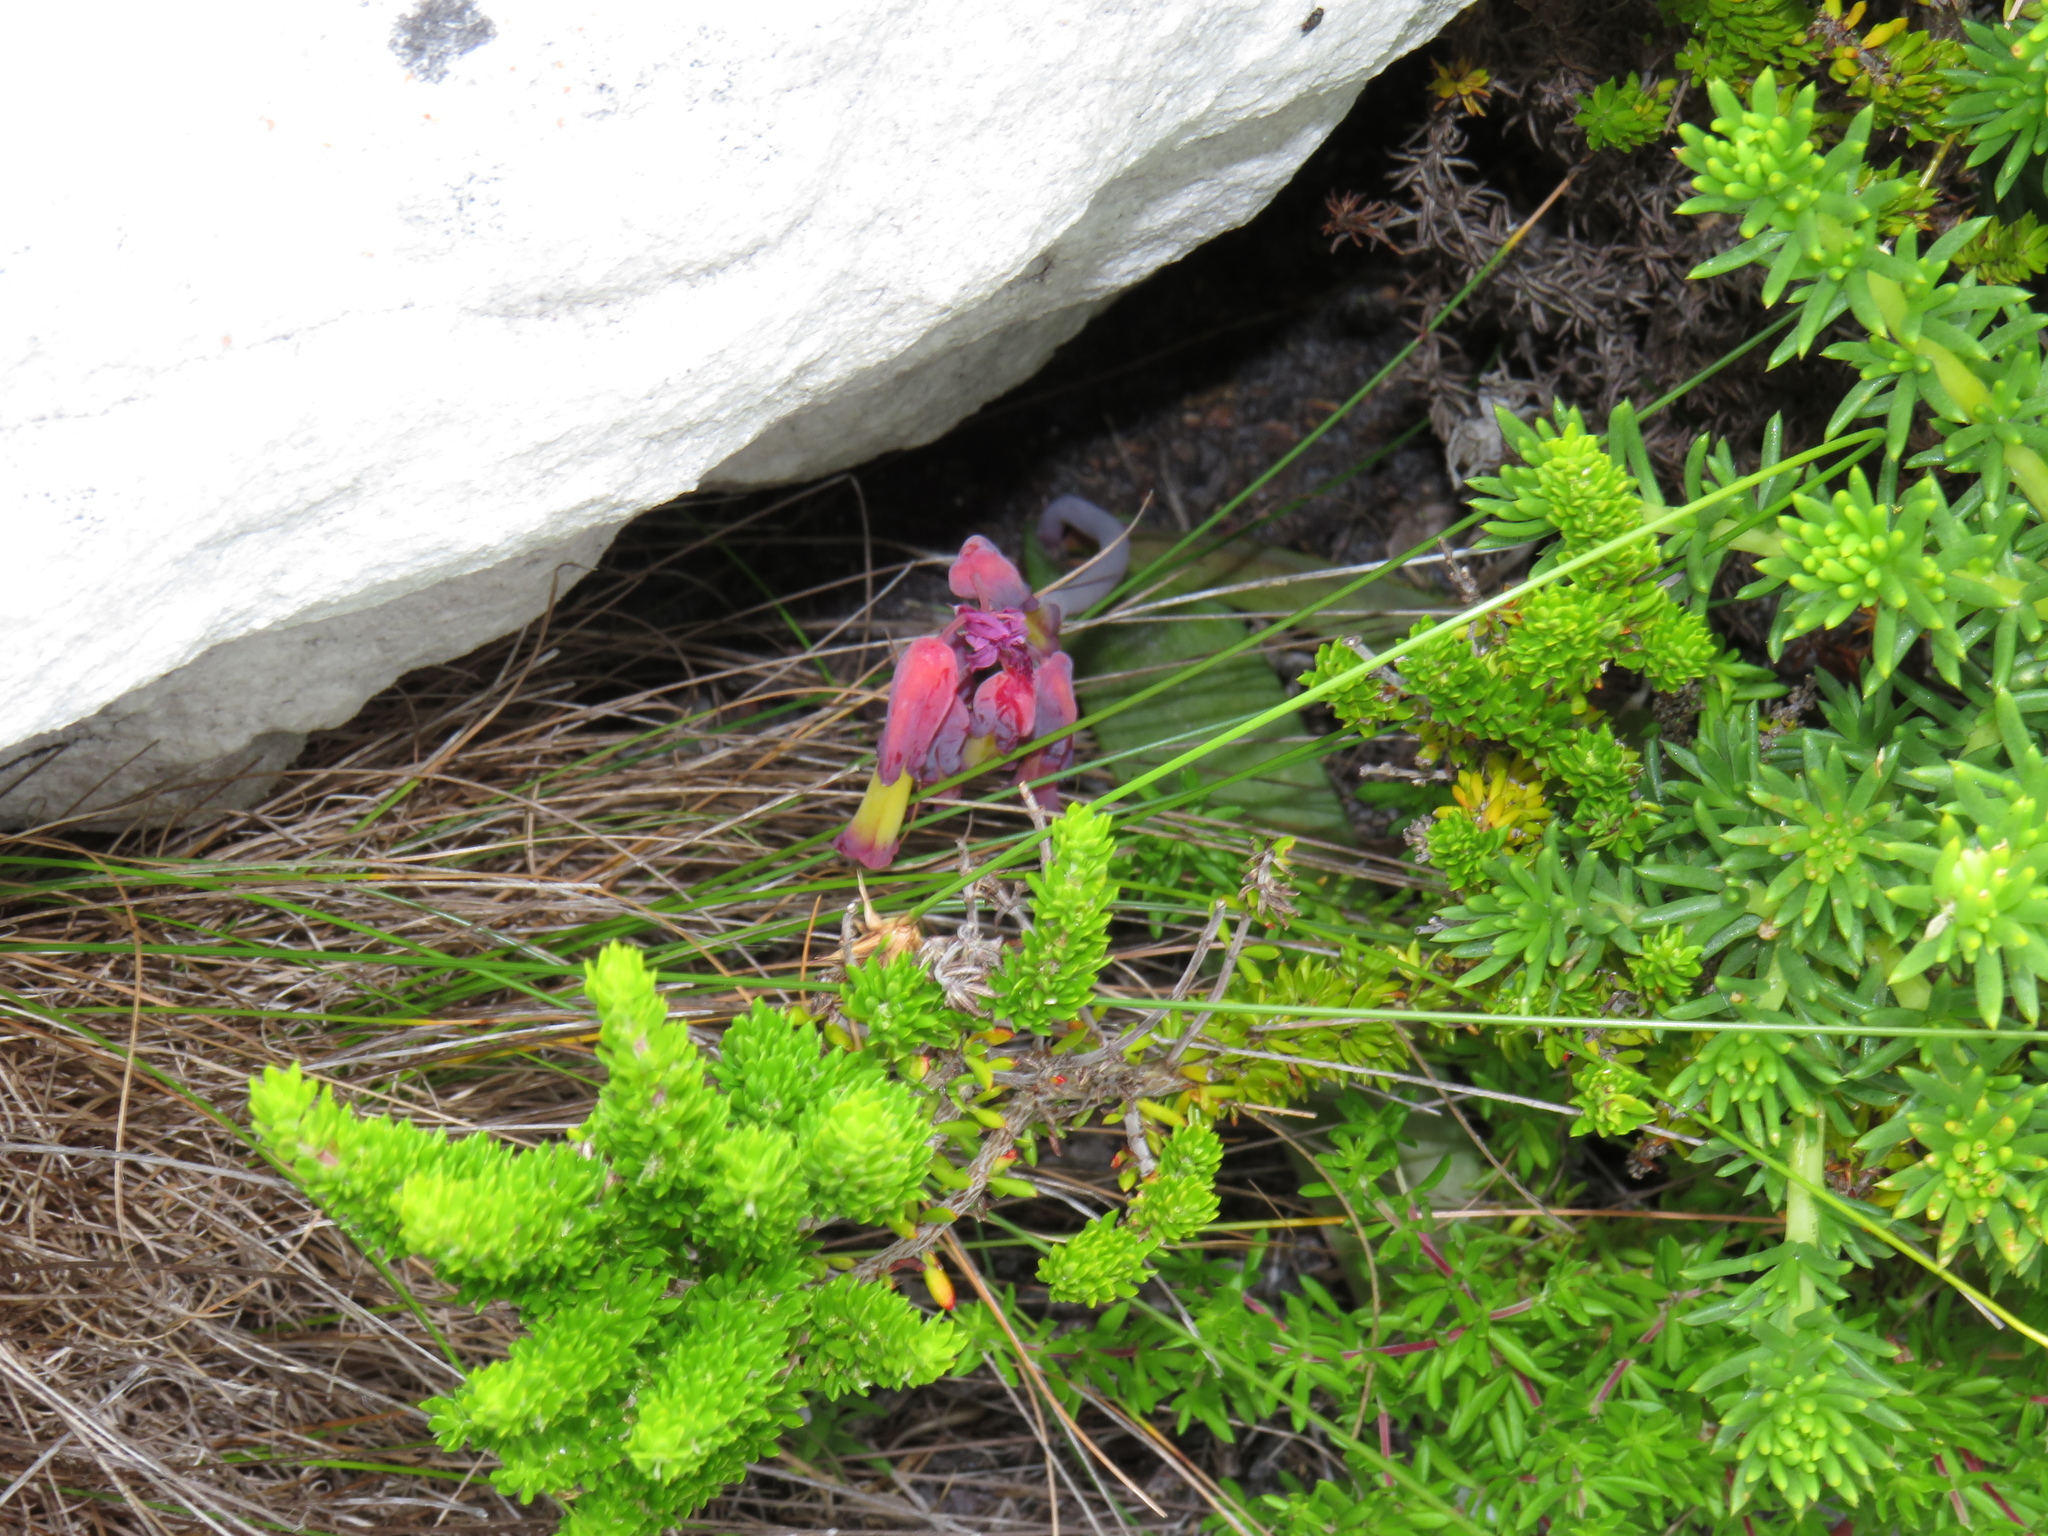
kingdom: Plantae
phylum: Tracheophyta
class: Liliopsida
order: Asparagales
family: Asparagaceae
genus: Lachenalia
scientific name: Lachenalia luteola
